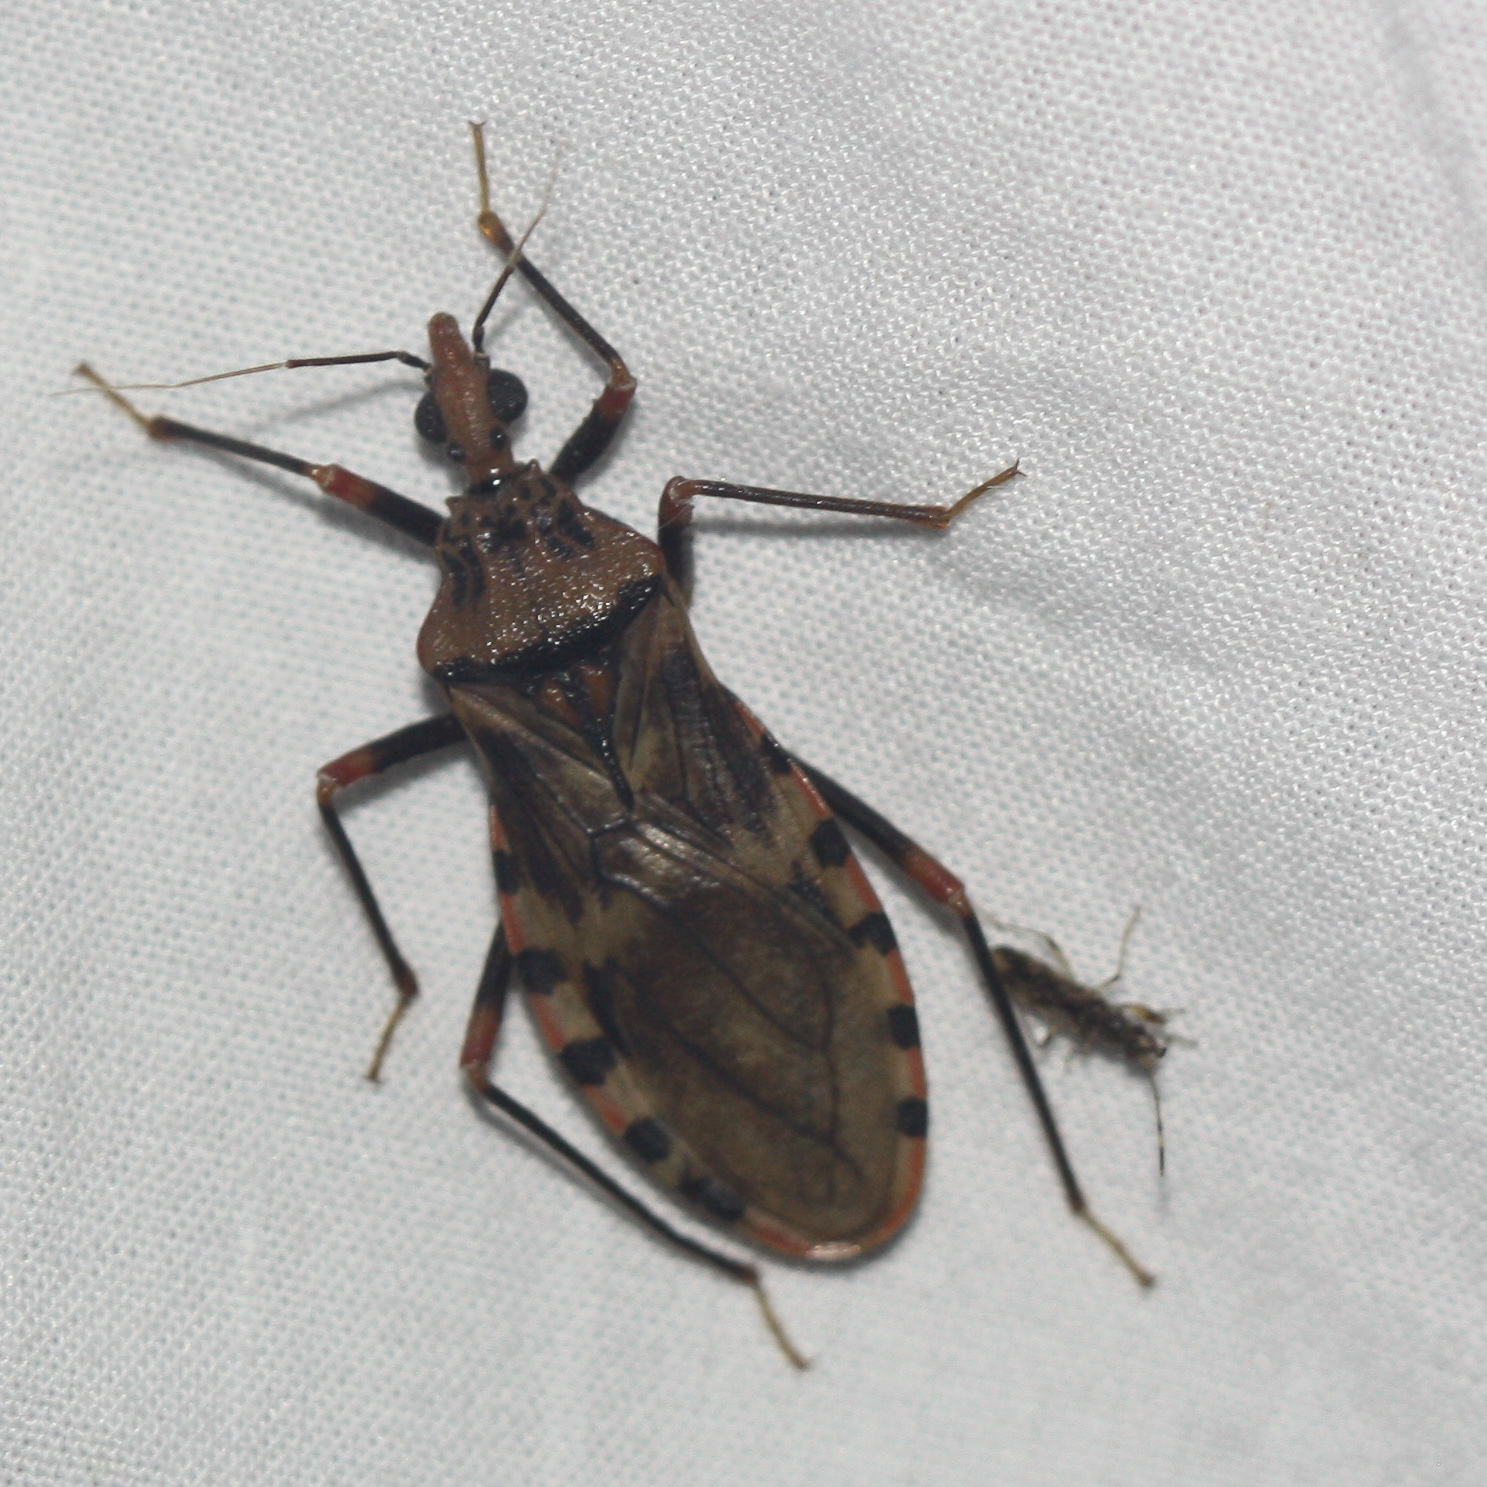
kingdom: Animalia
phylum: Arthropoda
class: Insecta
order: Hemiptera
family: Reduviidae
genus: Panstrongylus
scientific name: Panstrongylus geniculatus
